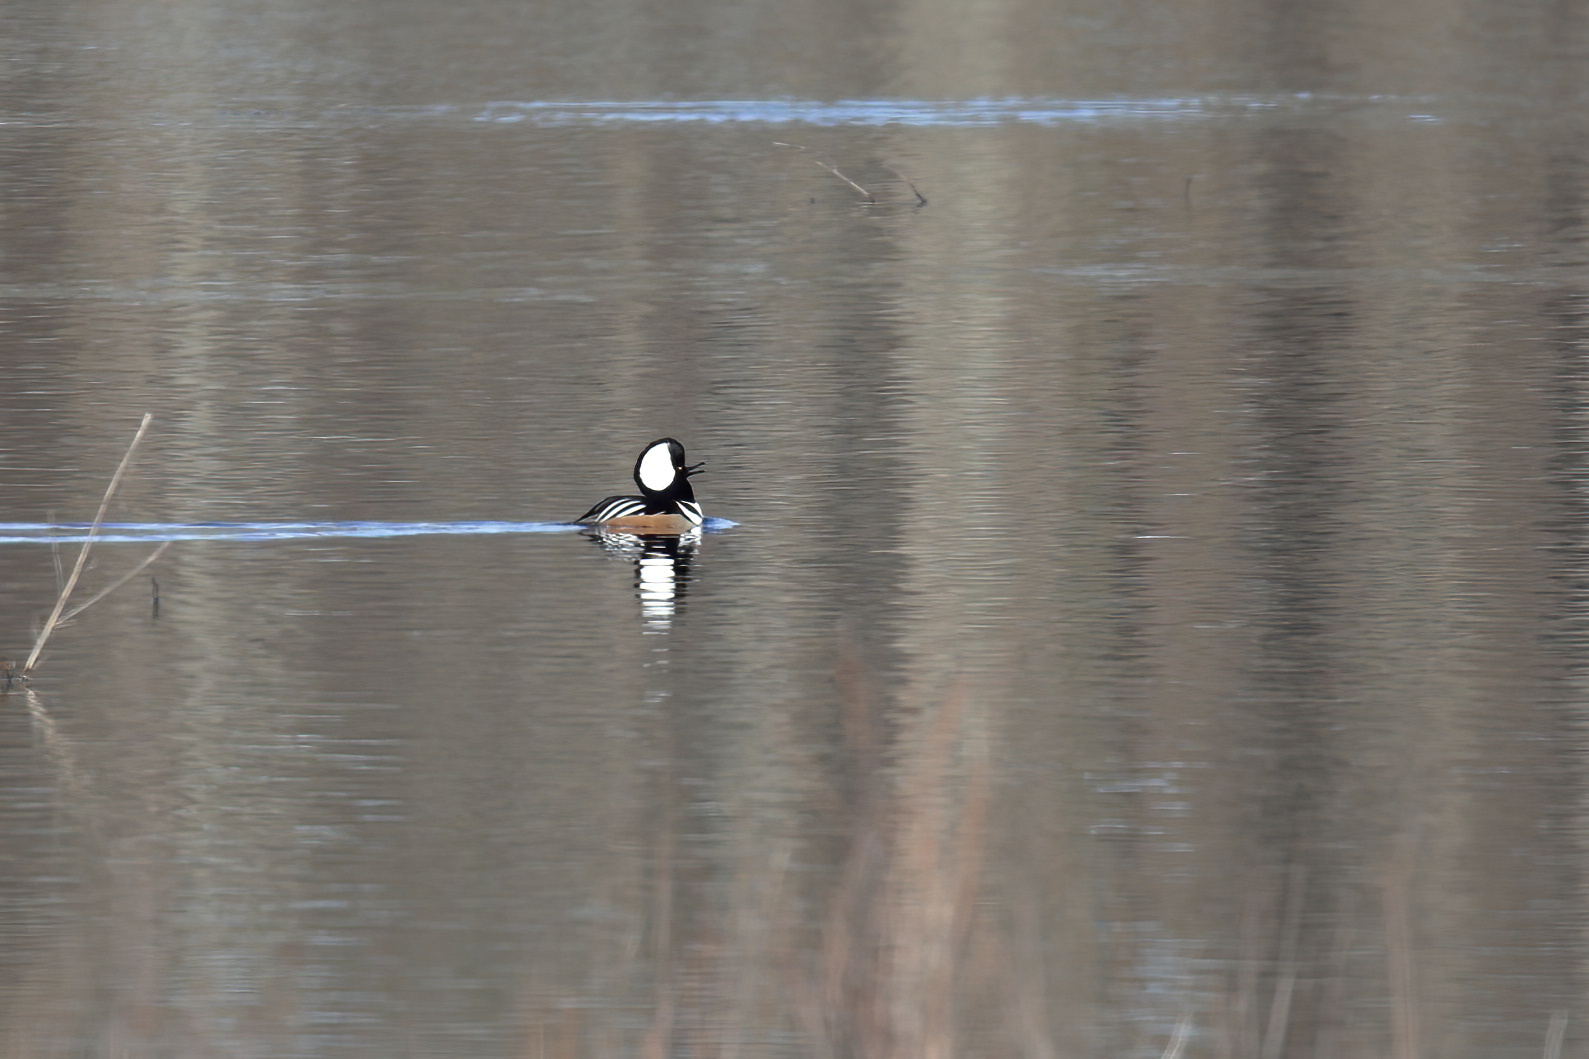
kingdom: Animalia
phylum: Chordata
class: Aves
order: Anseriformes
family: Anatidae
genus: Lophodytes
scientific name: Lophodytes cucullatus
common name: Hooded merganser
